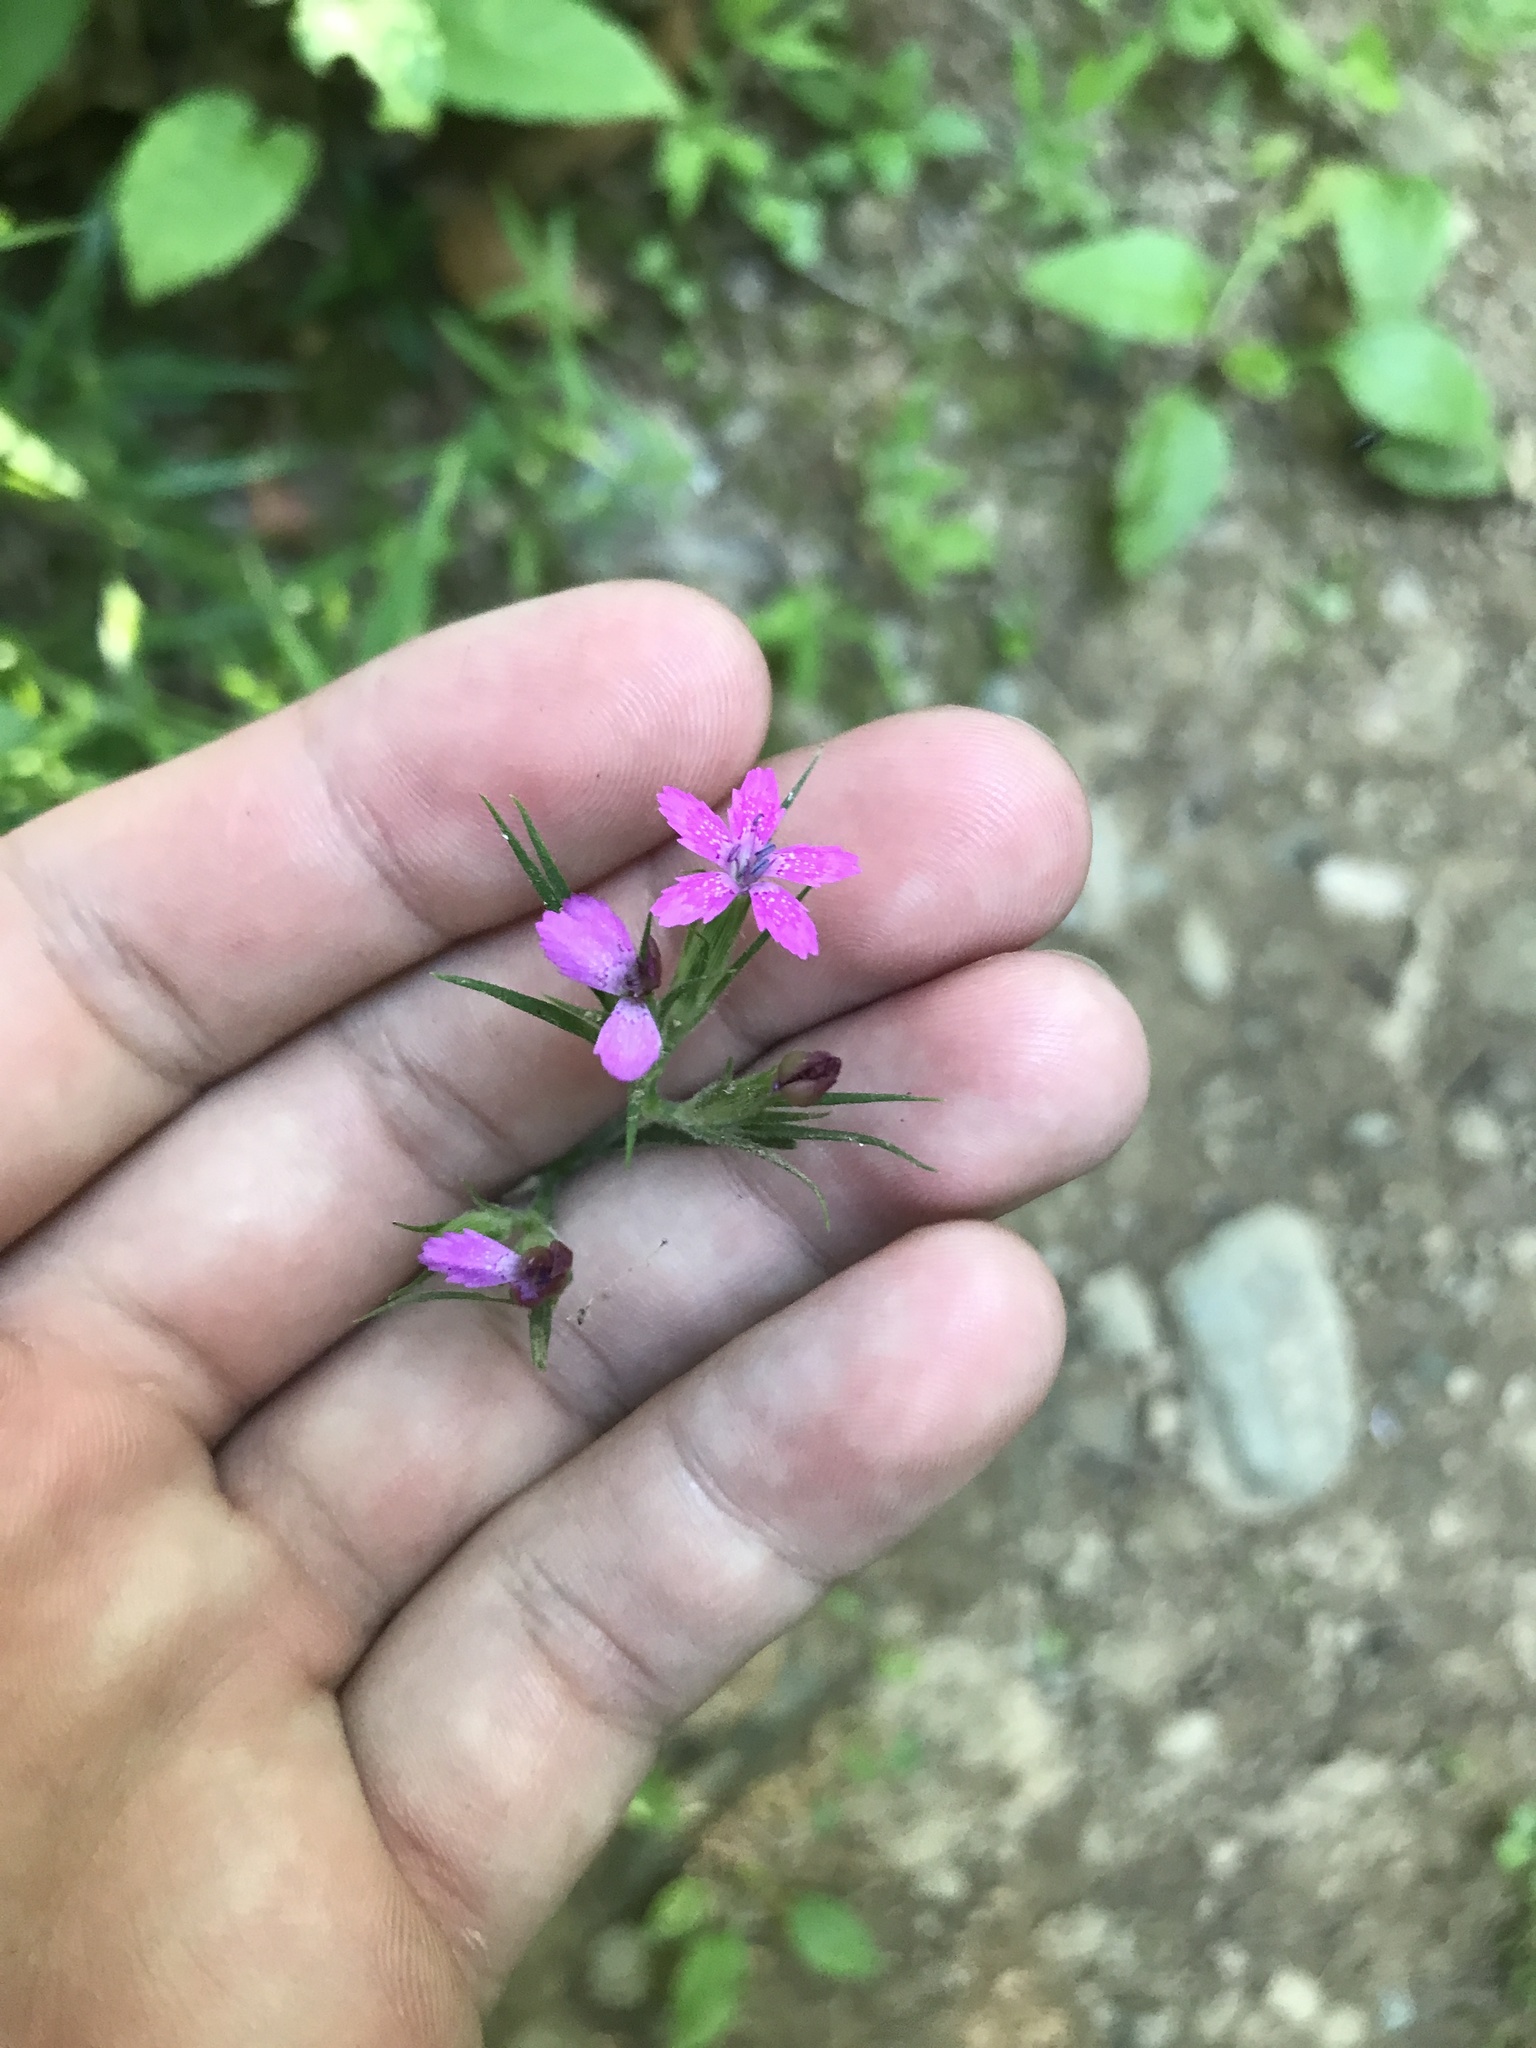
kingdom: Plantae
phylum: Tracheophyta
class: Magnoliopsida
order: Caryophyllales
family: Caryophyllaceae
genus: Dianthus
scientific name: Dianthus armeria
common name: Deptford pink
